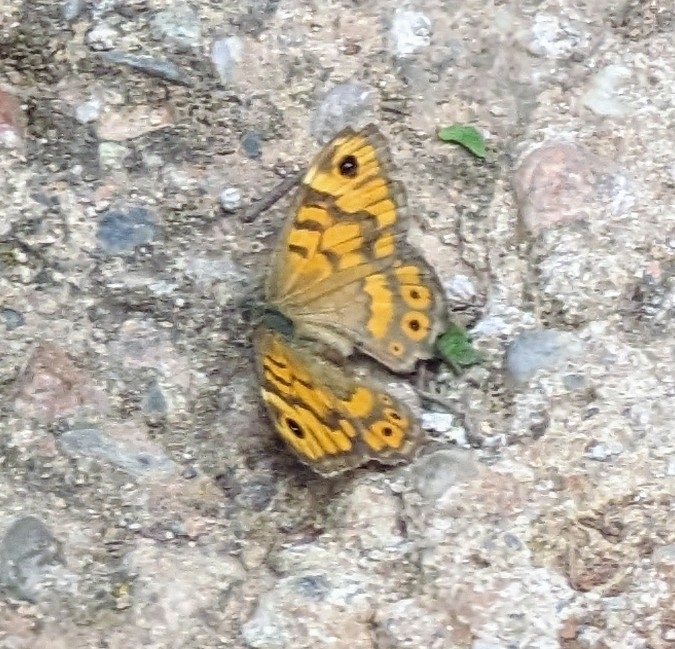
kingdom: Animalia
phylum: Arthropoda
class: Insecta
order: Lepidoptera
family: Nymphalidae
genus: Pararge
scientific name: Pararge Lasiommata megera
